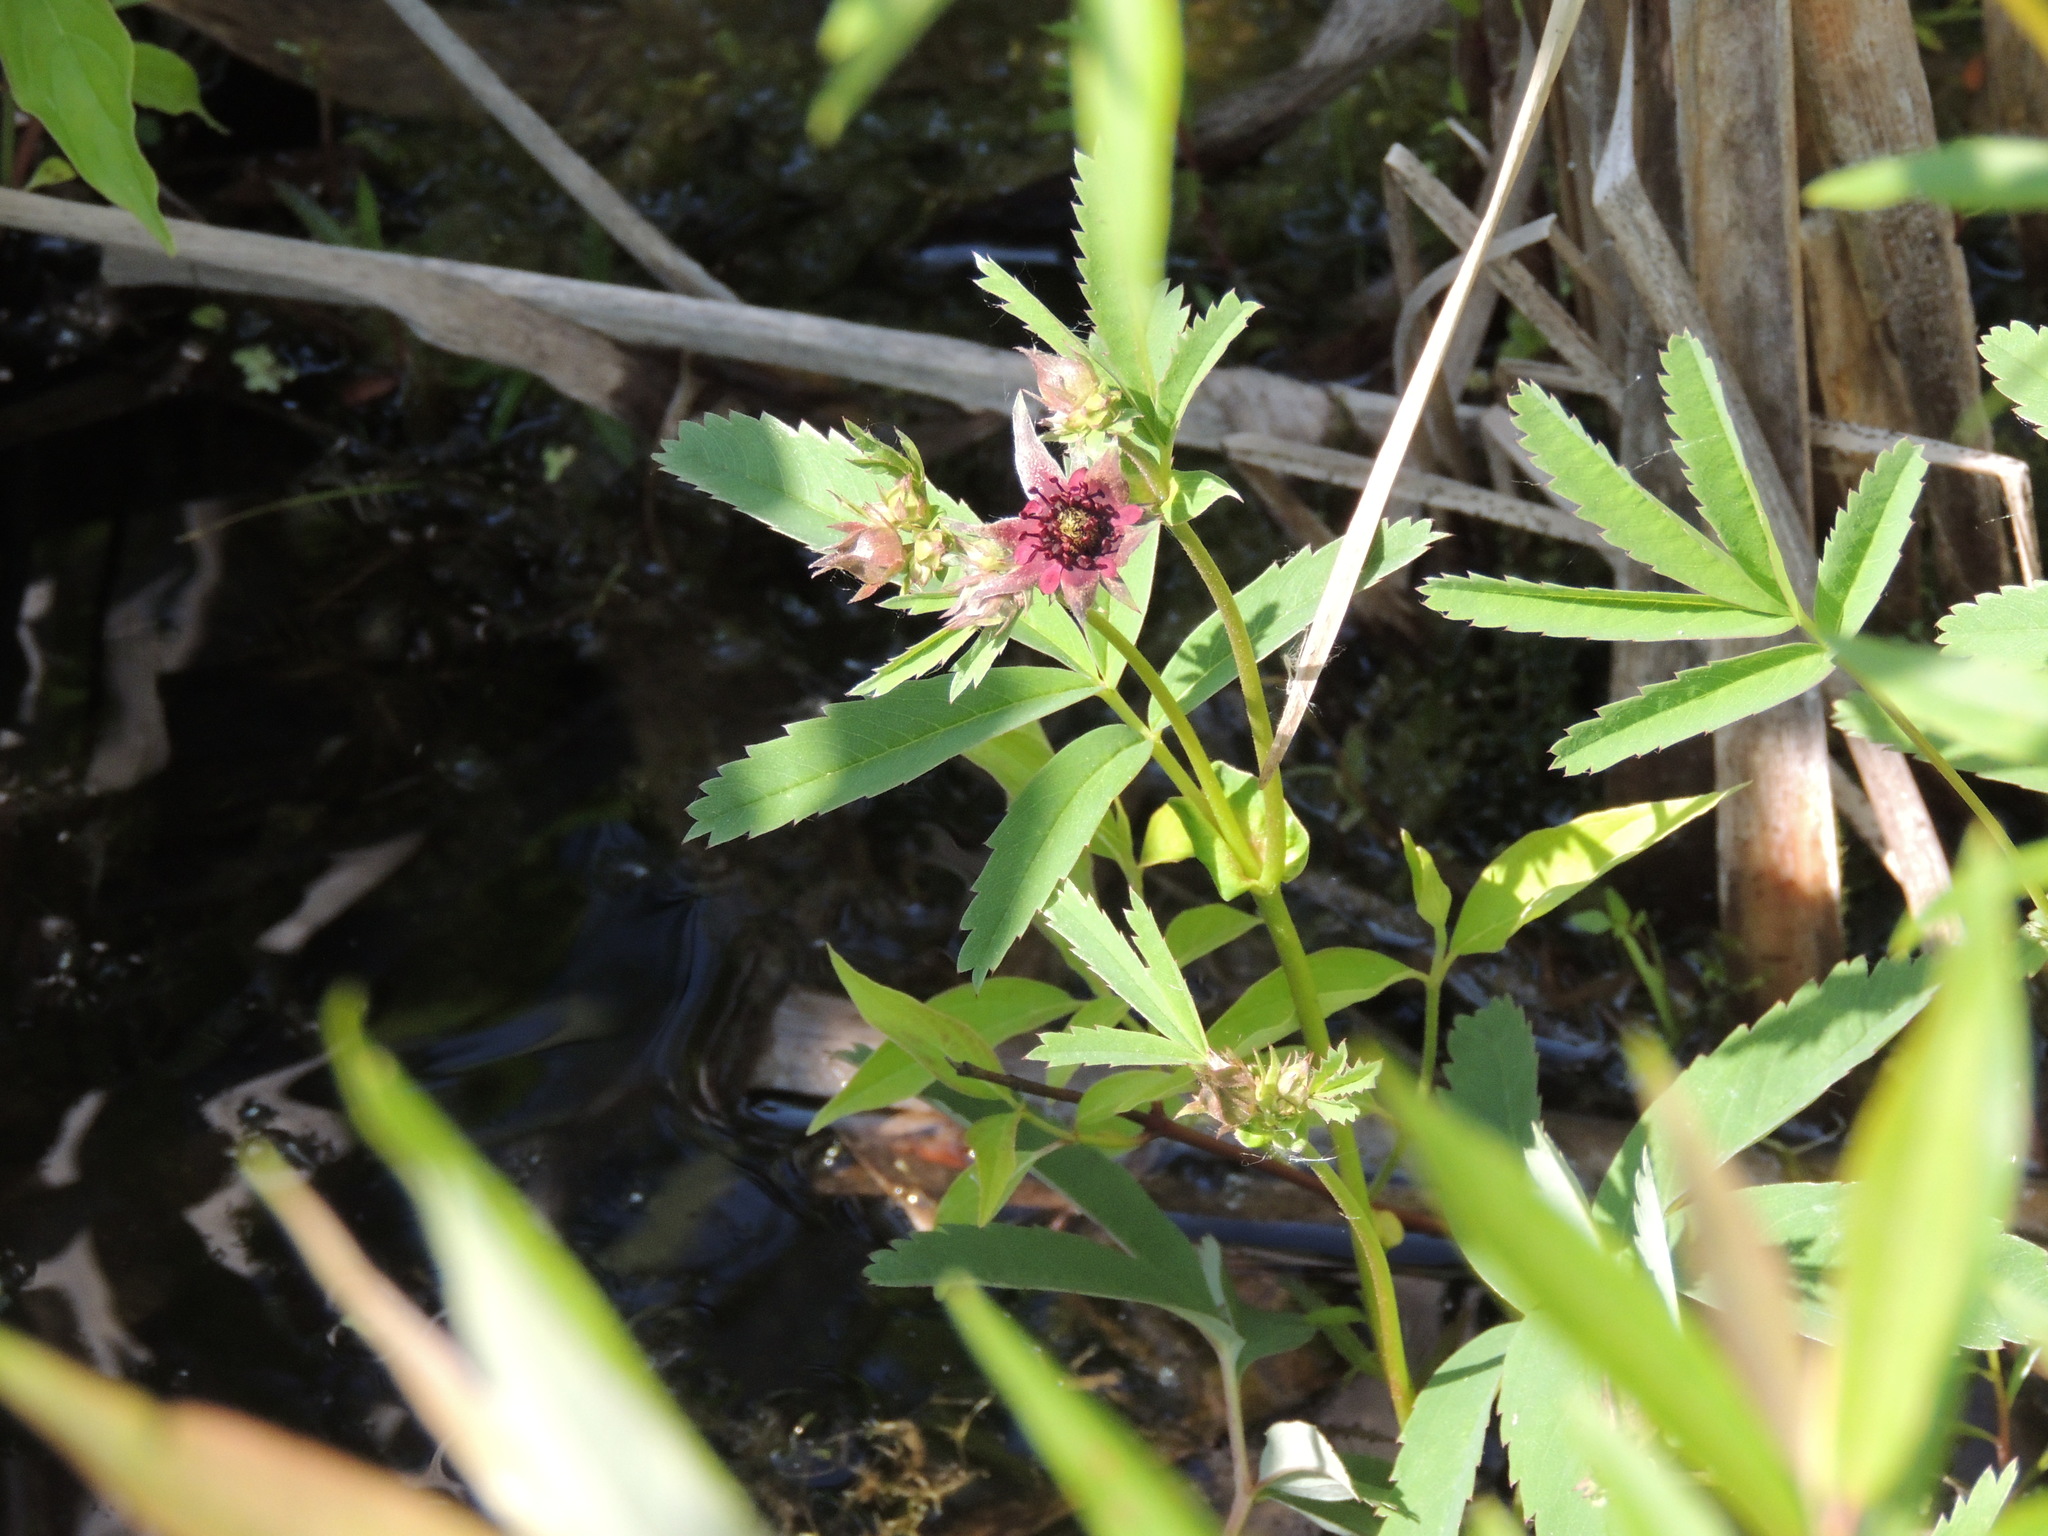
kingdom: Plantae
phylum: Tracheophyta
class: Magnoliopsida
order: Rosales
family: Rosaceae
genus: Comarum
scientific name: Comarum palustre
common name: Marsh cinquefoil
